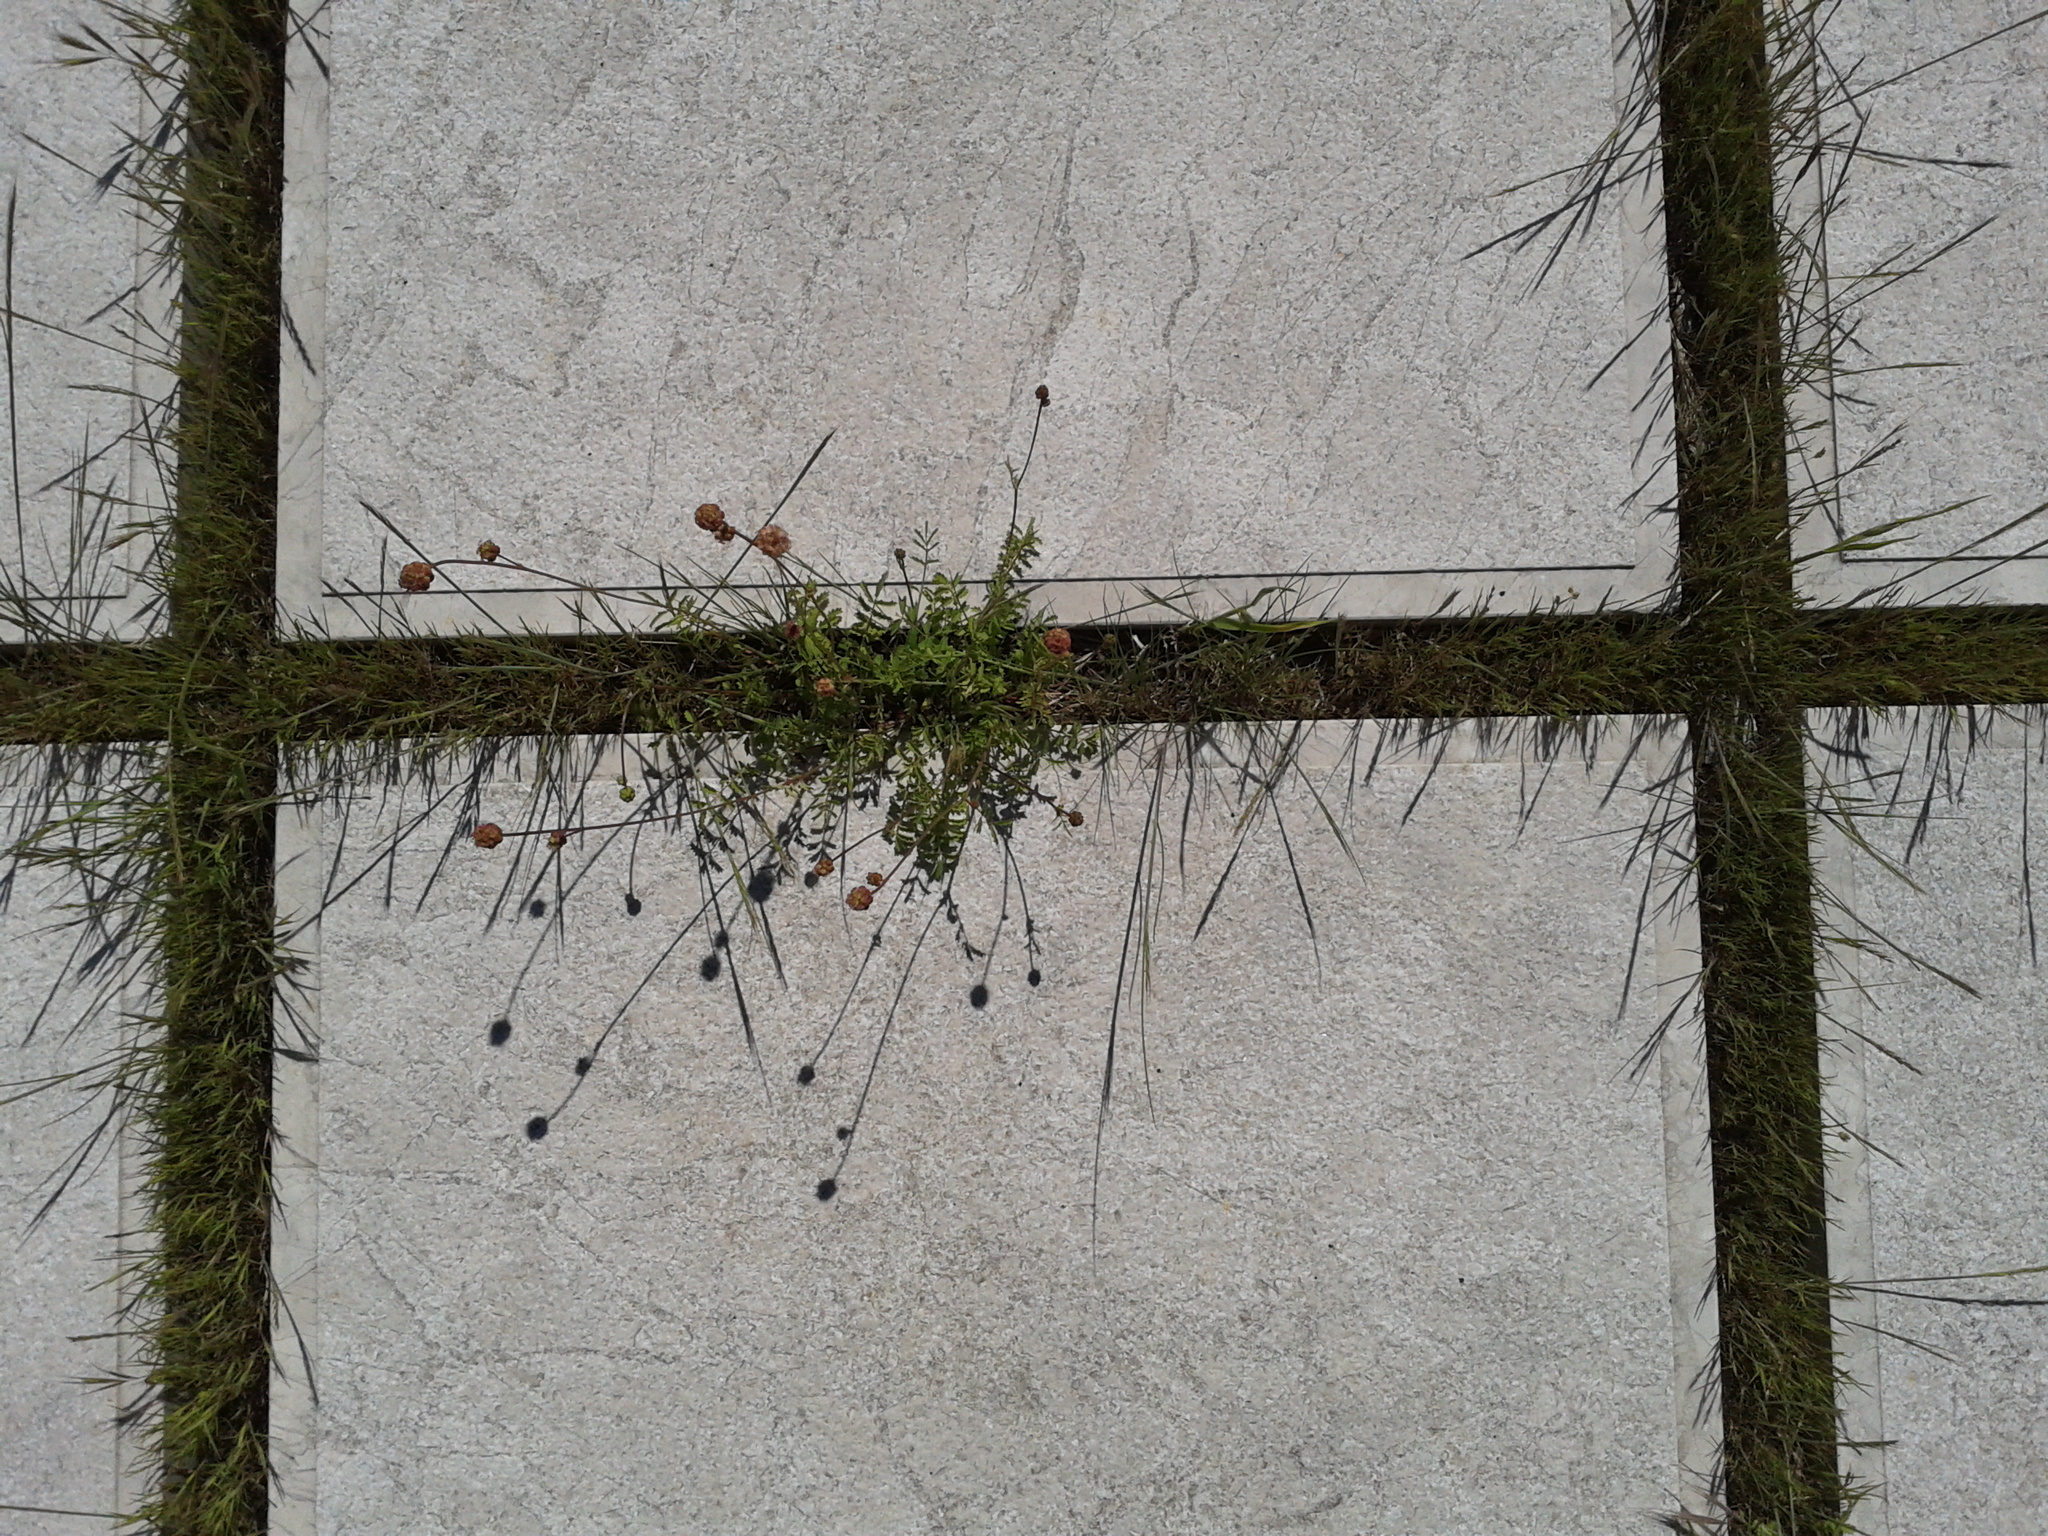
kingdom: Plantae
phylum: Tracheophyta
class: Magnoliopsida
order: Rosales
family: Rosaceae
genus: Poterium
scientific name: Poterium sanguisorba
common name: Salad burnet
